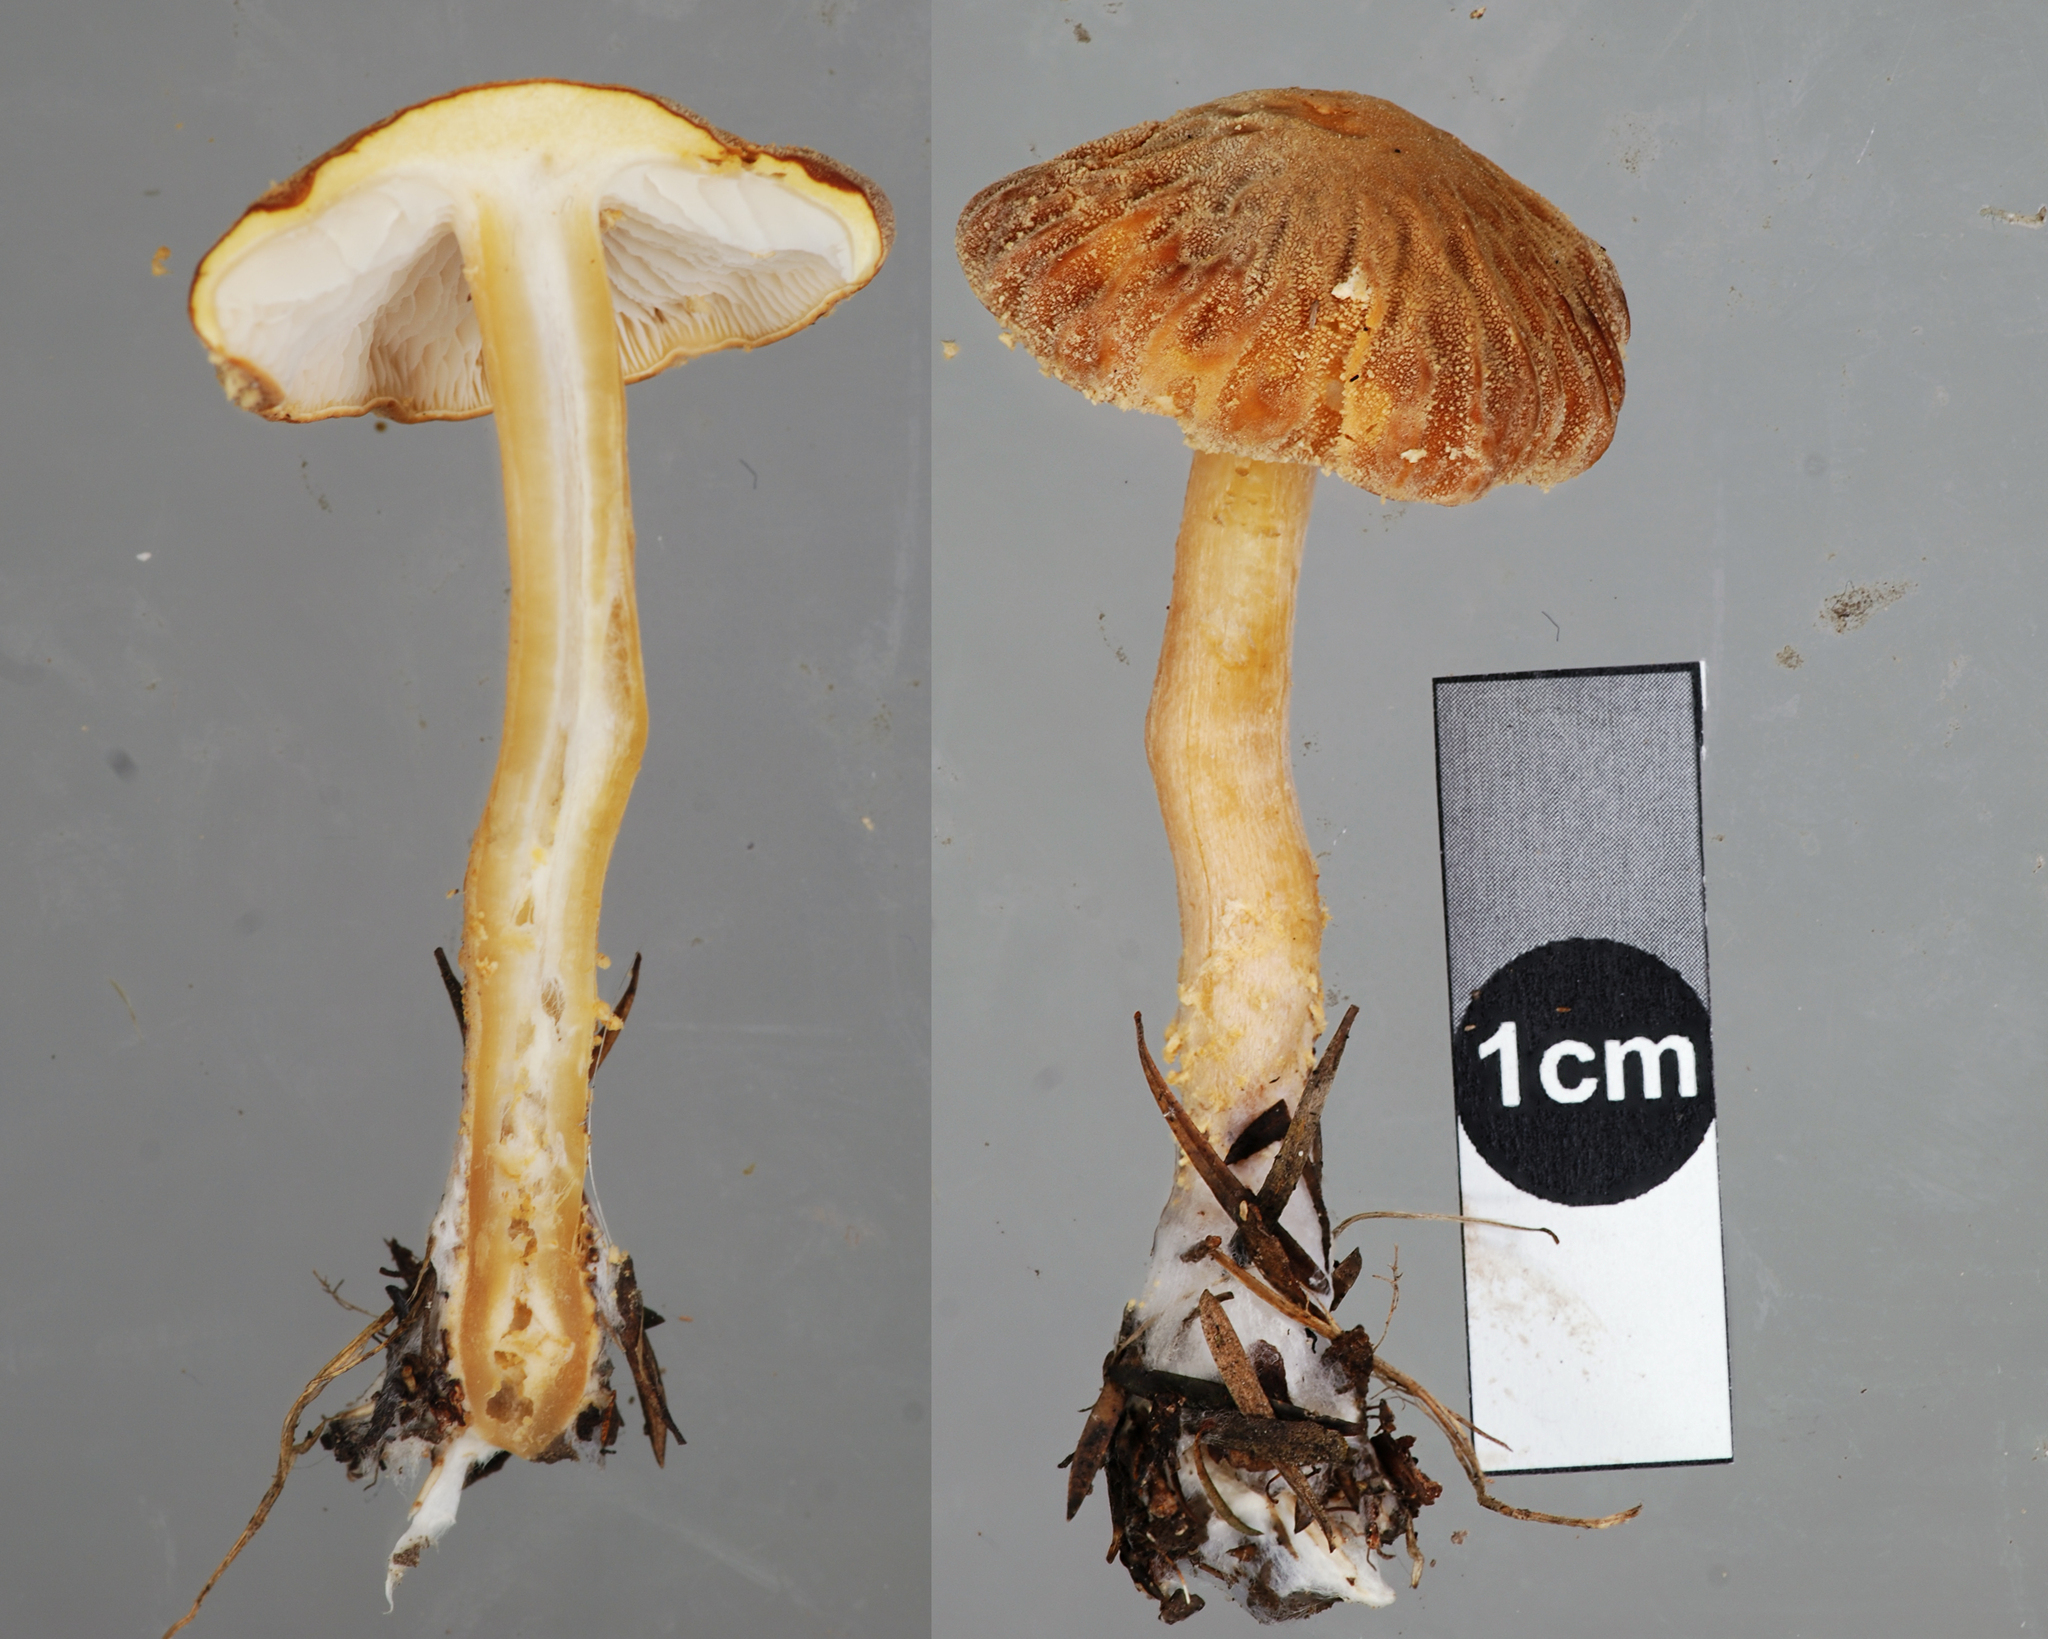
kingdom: Fungi
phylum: Basidiomycota
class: Agaricomycetes
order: Agaricales
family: Tricholomataceae
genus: Cystoderma
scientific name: Cystoderma clastotrichum
